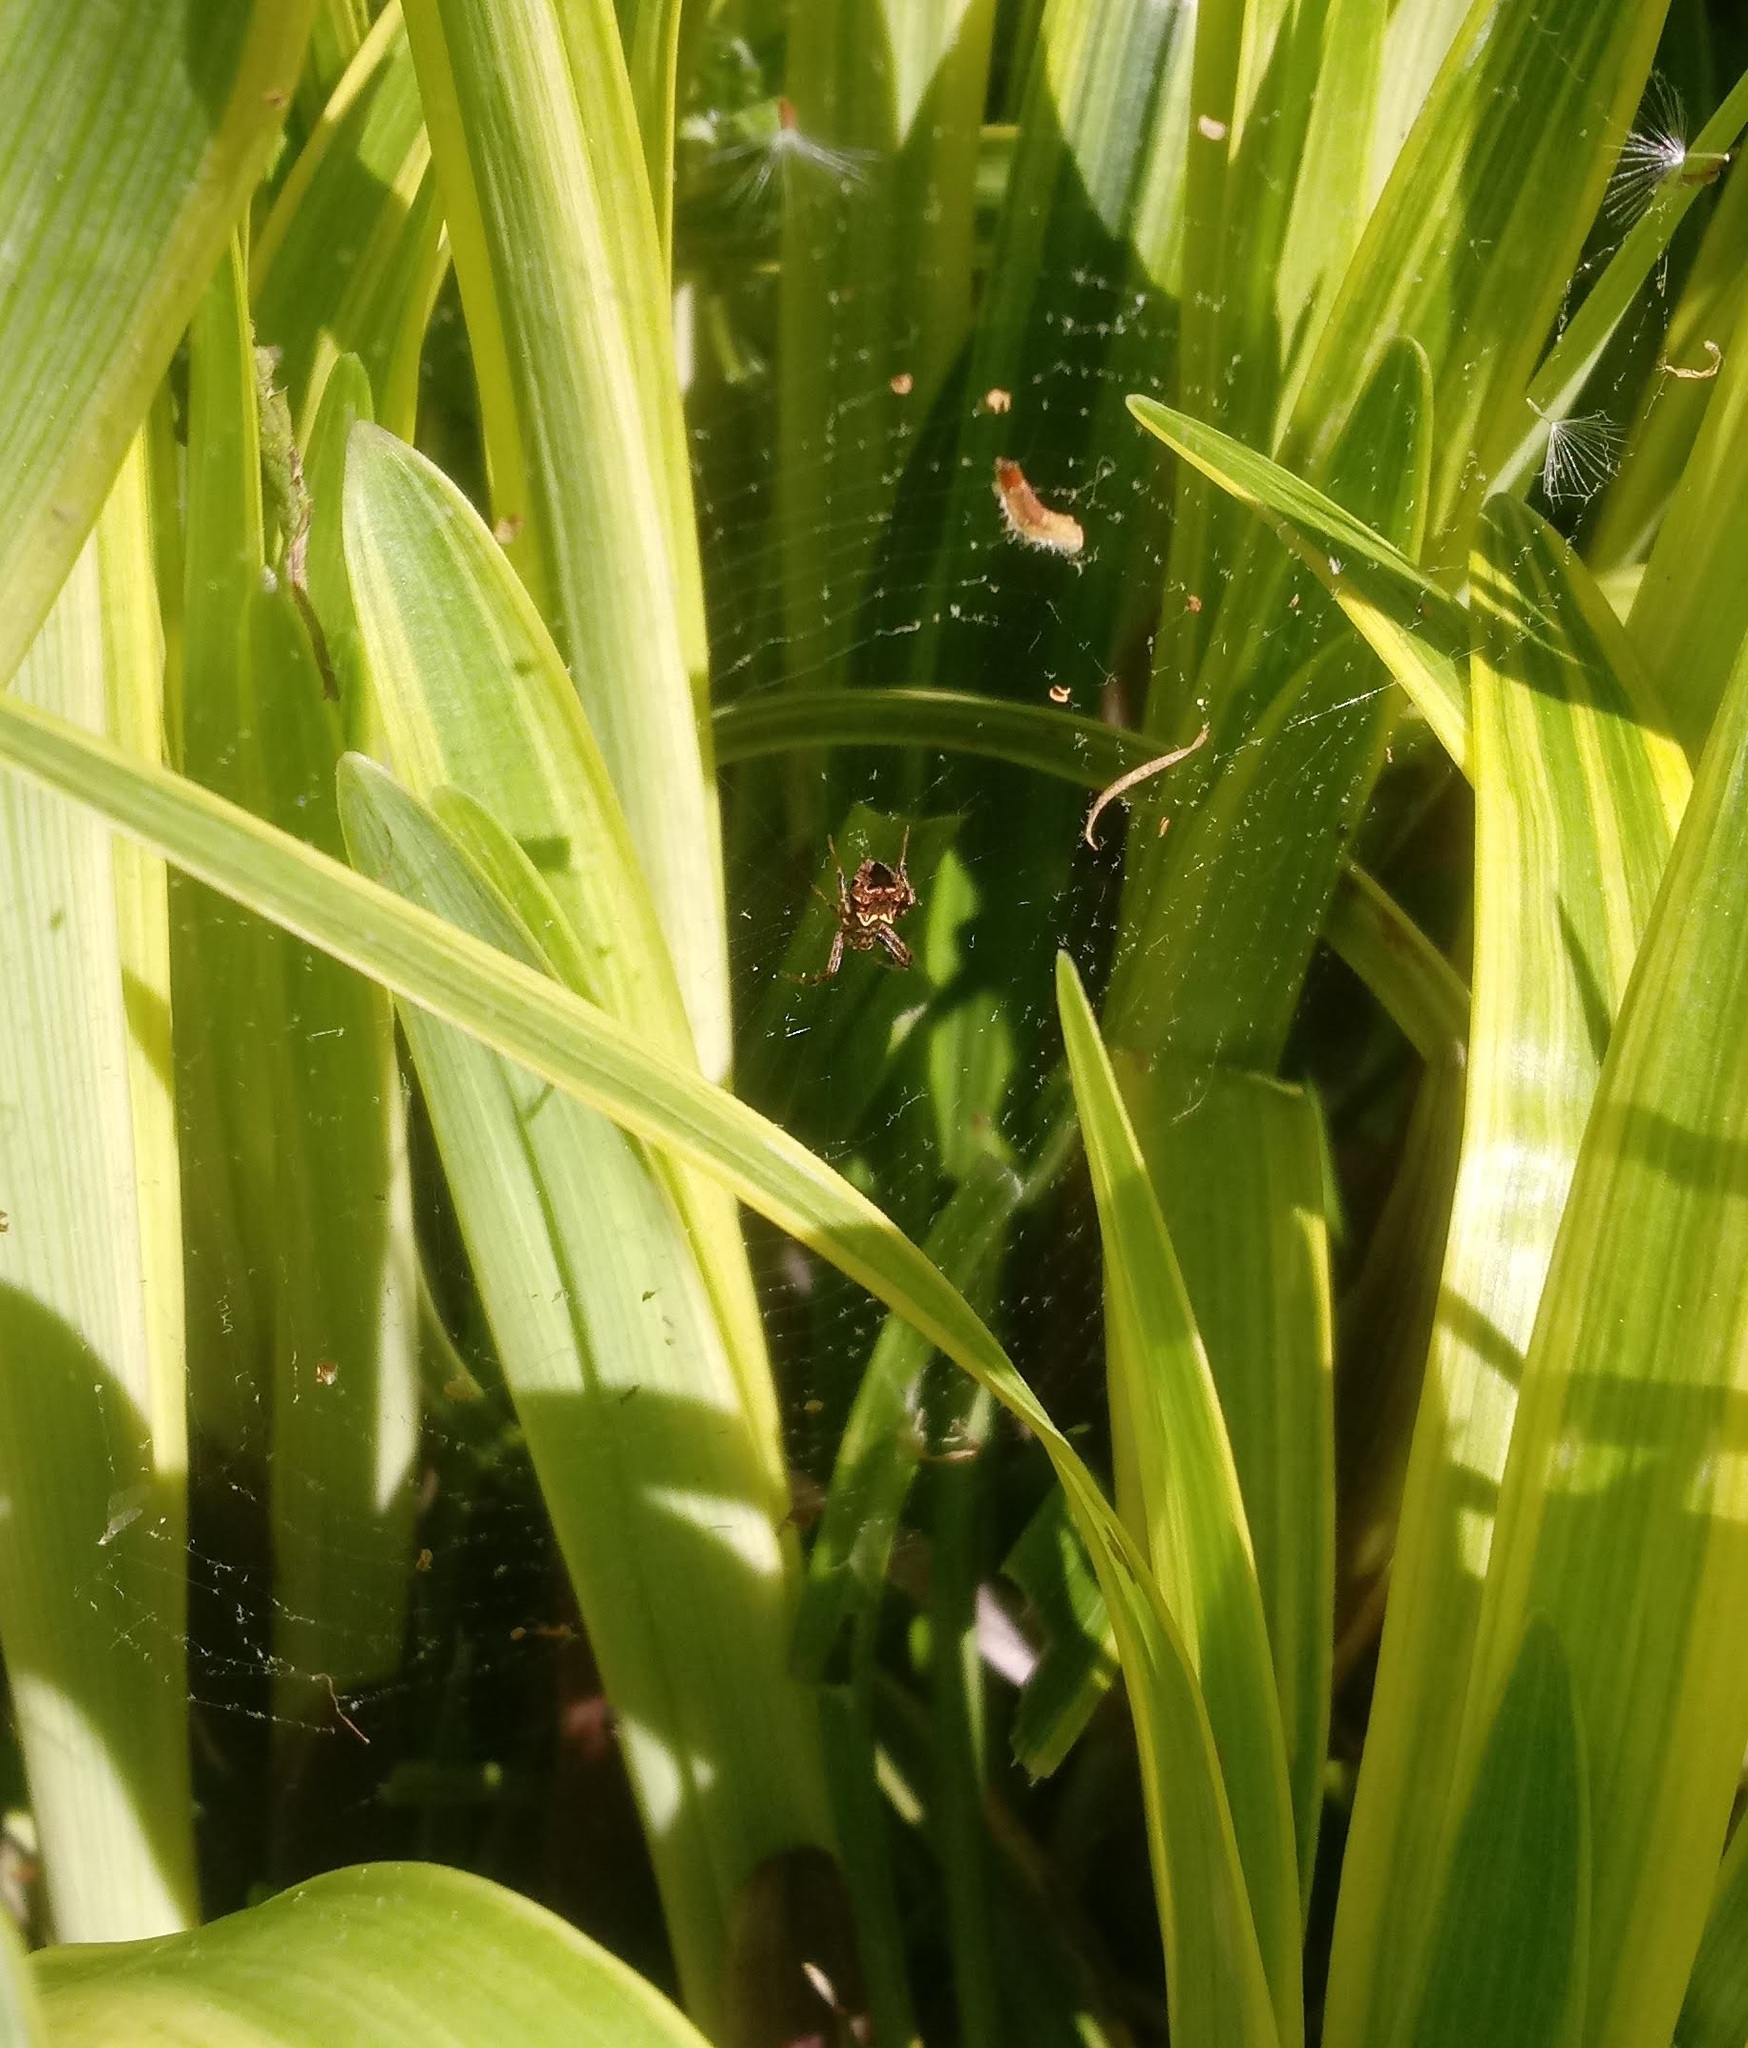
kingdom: Animalia
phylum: Arthropoda
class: Arachnida
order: Araneae
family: Araneidae
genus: Gea
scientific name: Gea heptagon
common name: Orb weavers
